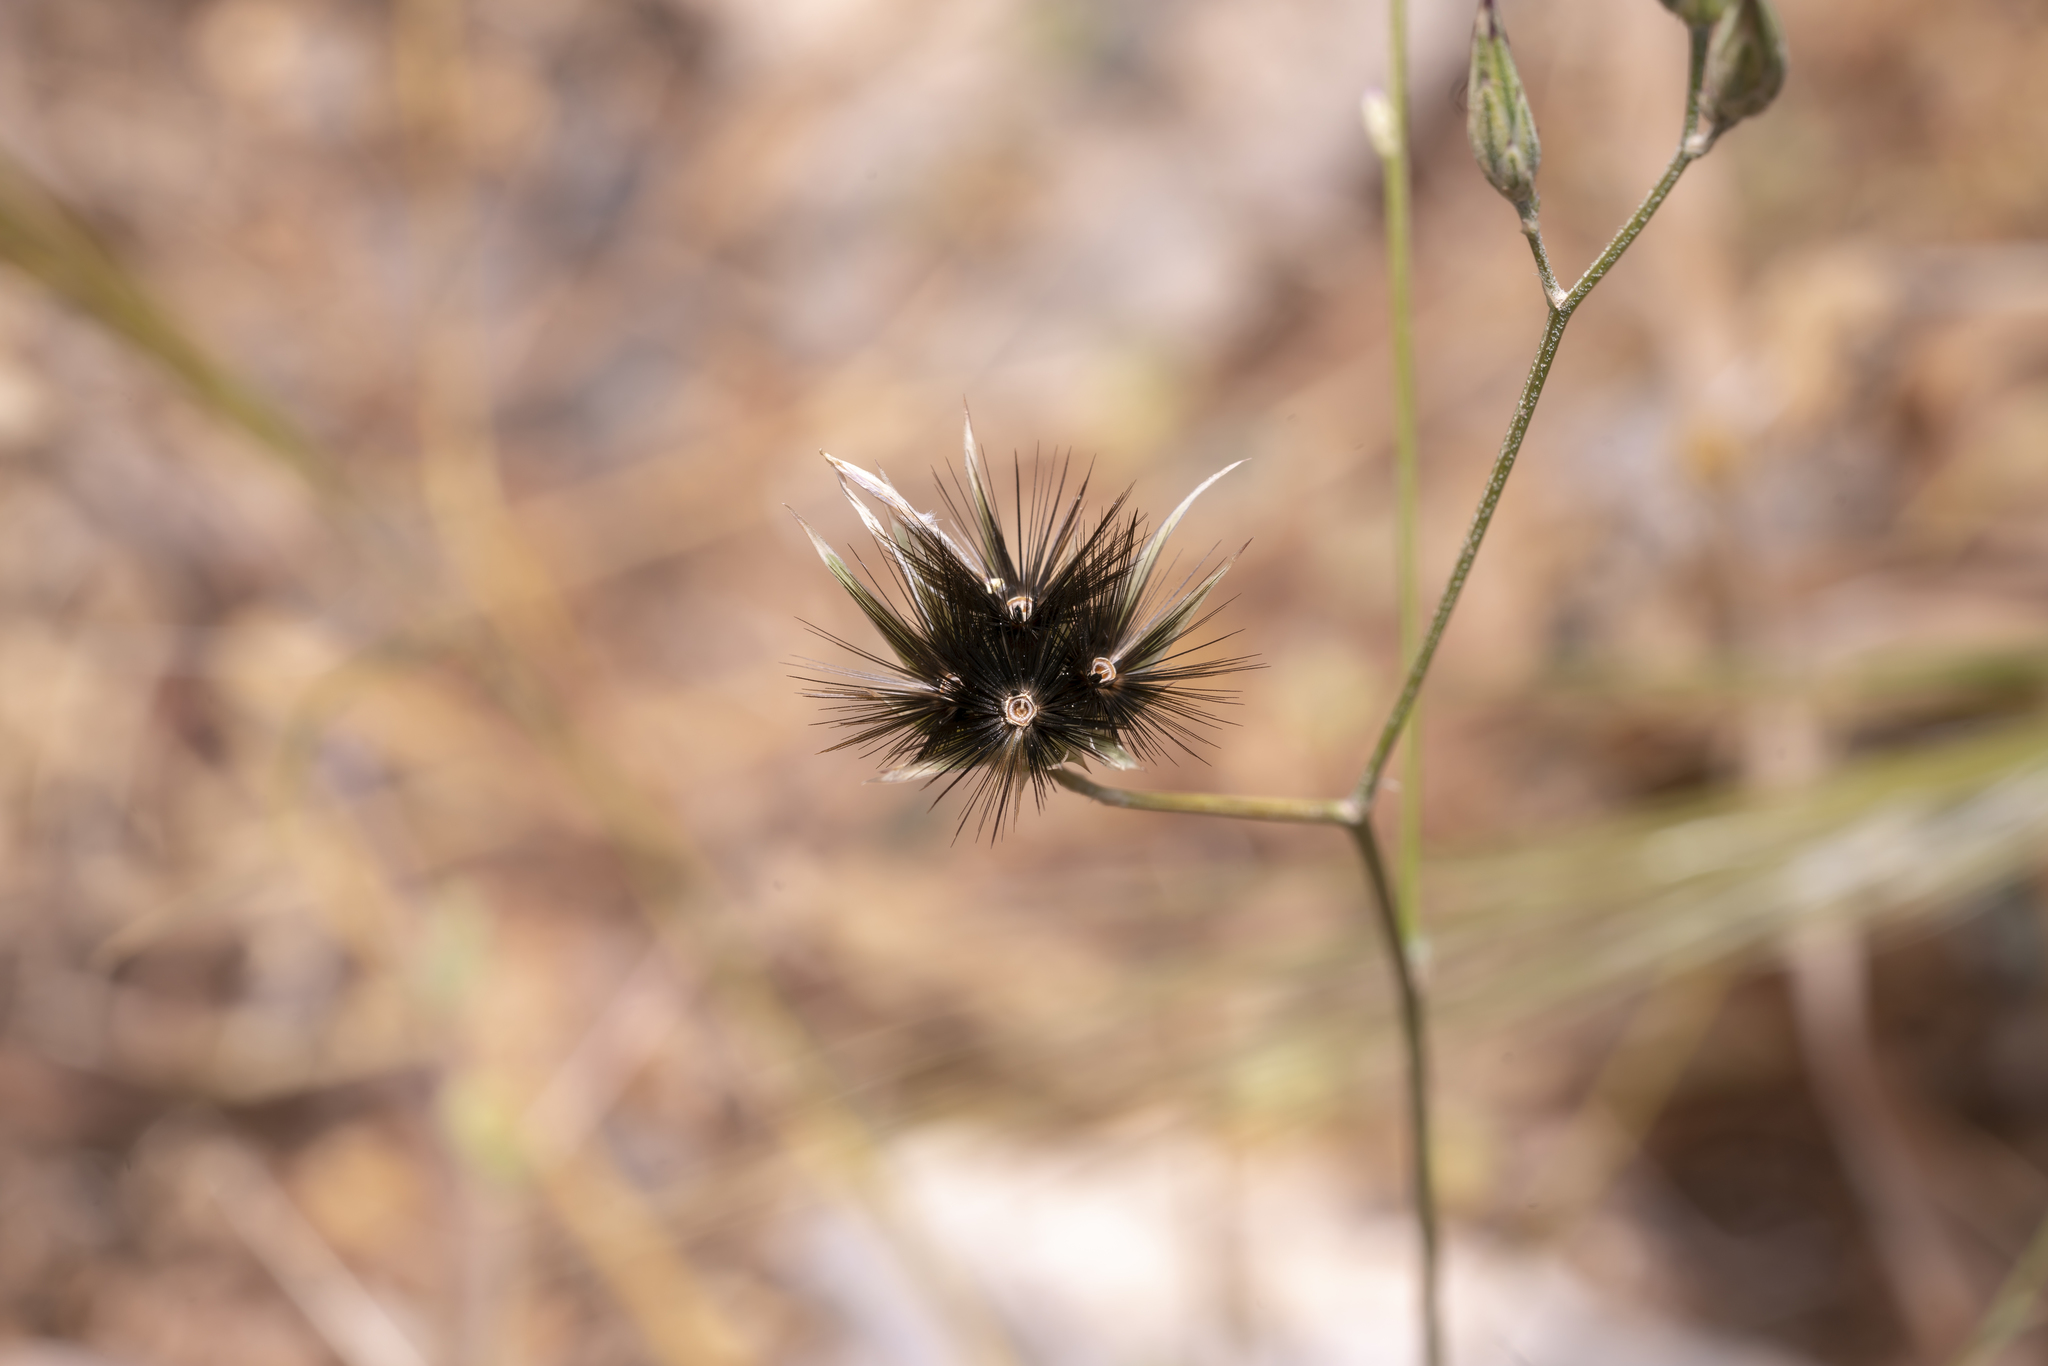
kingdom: Plantae
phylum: Tracheophyta
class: Magnoliopsida
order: Asterales
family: Asteraceae
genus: Crupina
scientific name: Crupina crupinastrum
